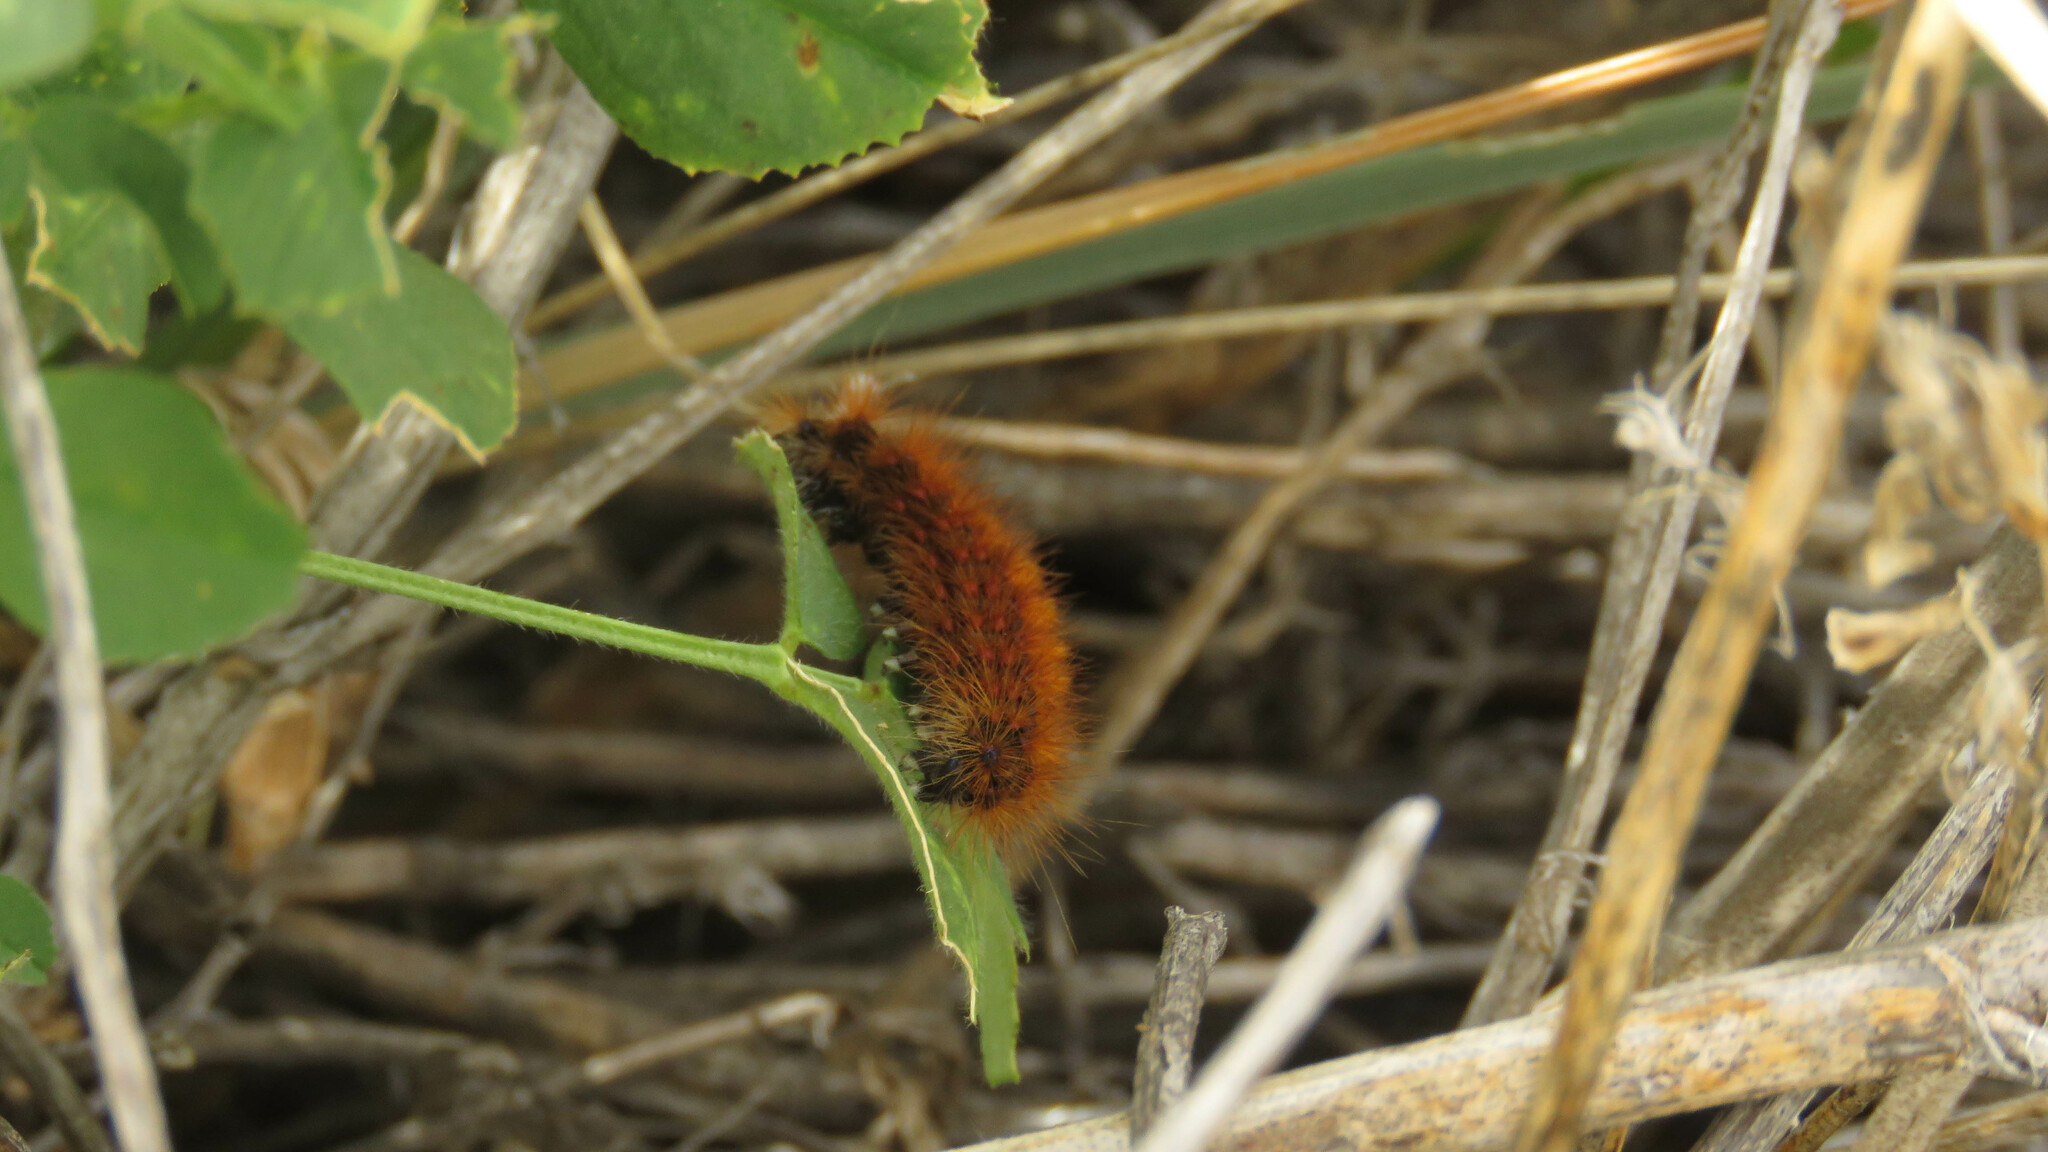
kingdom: Animalia
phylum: Arthropoda
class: Insecta
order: Lepidoptera
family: Erebidae
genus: Paracles
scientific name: Paracles severa
